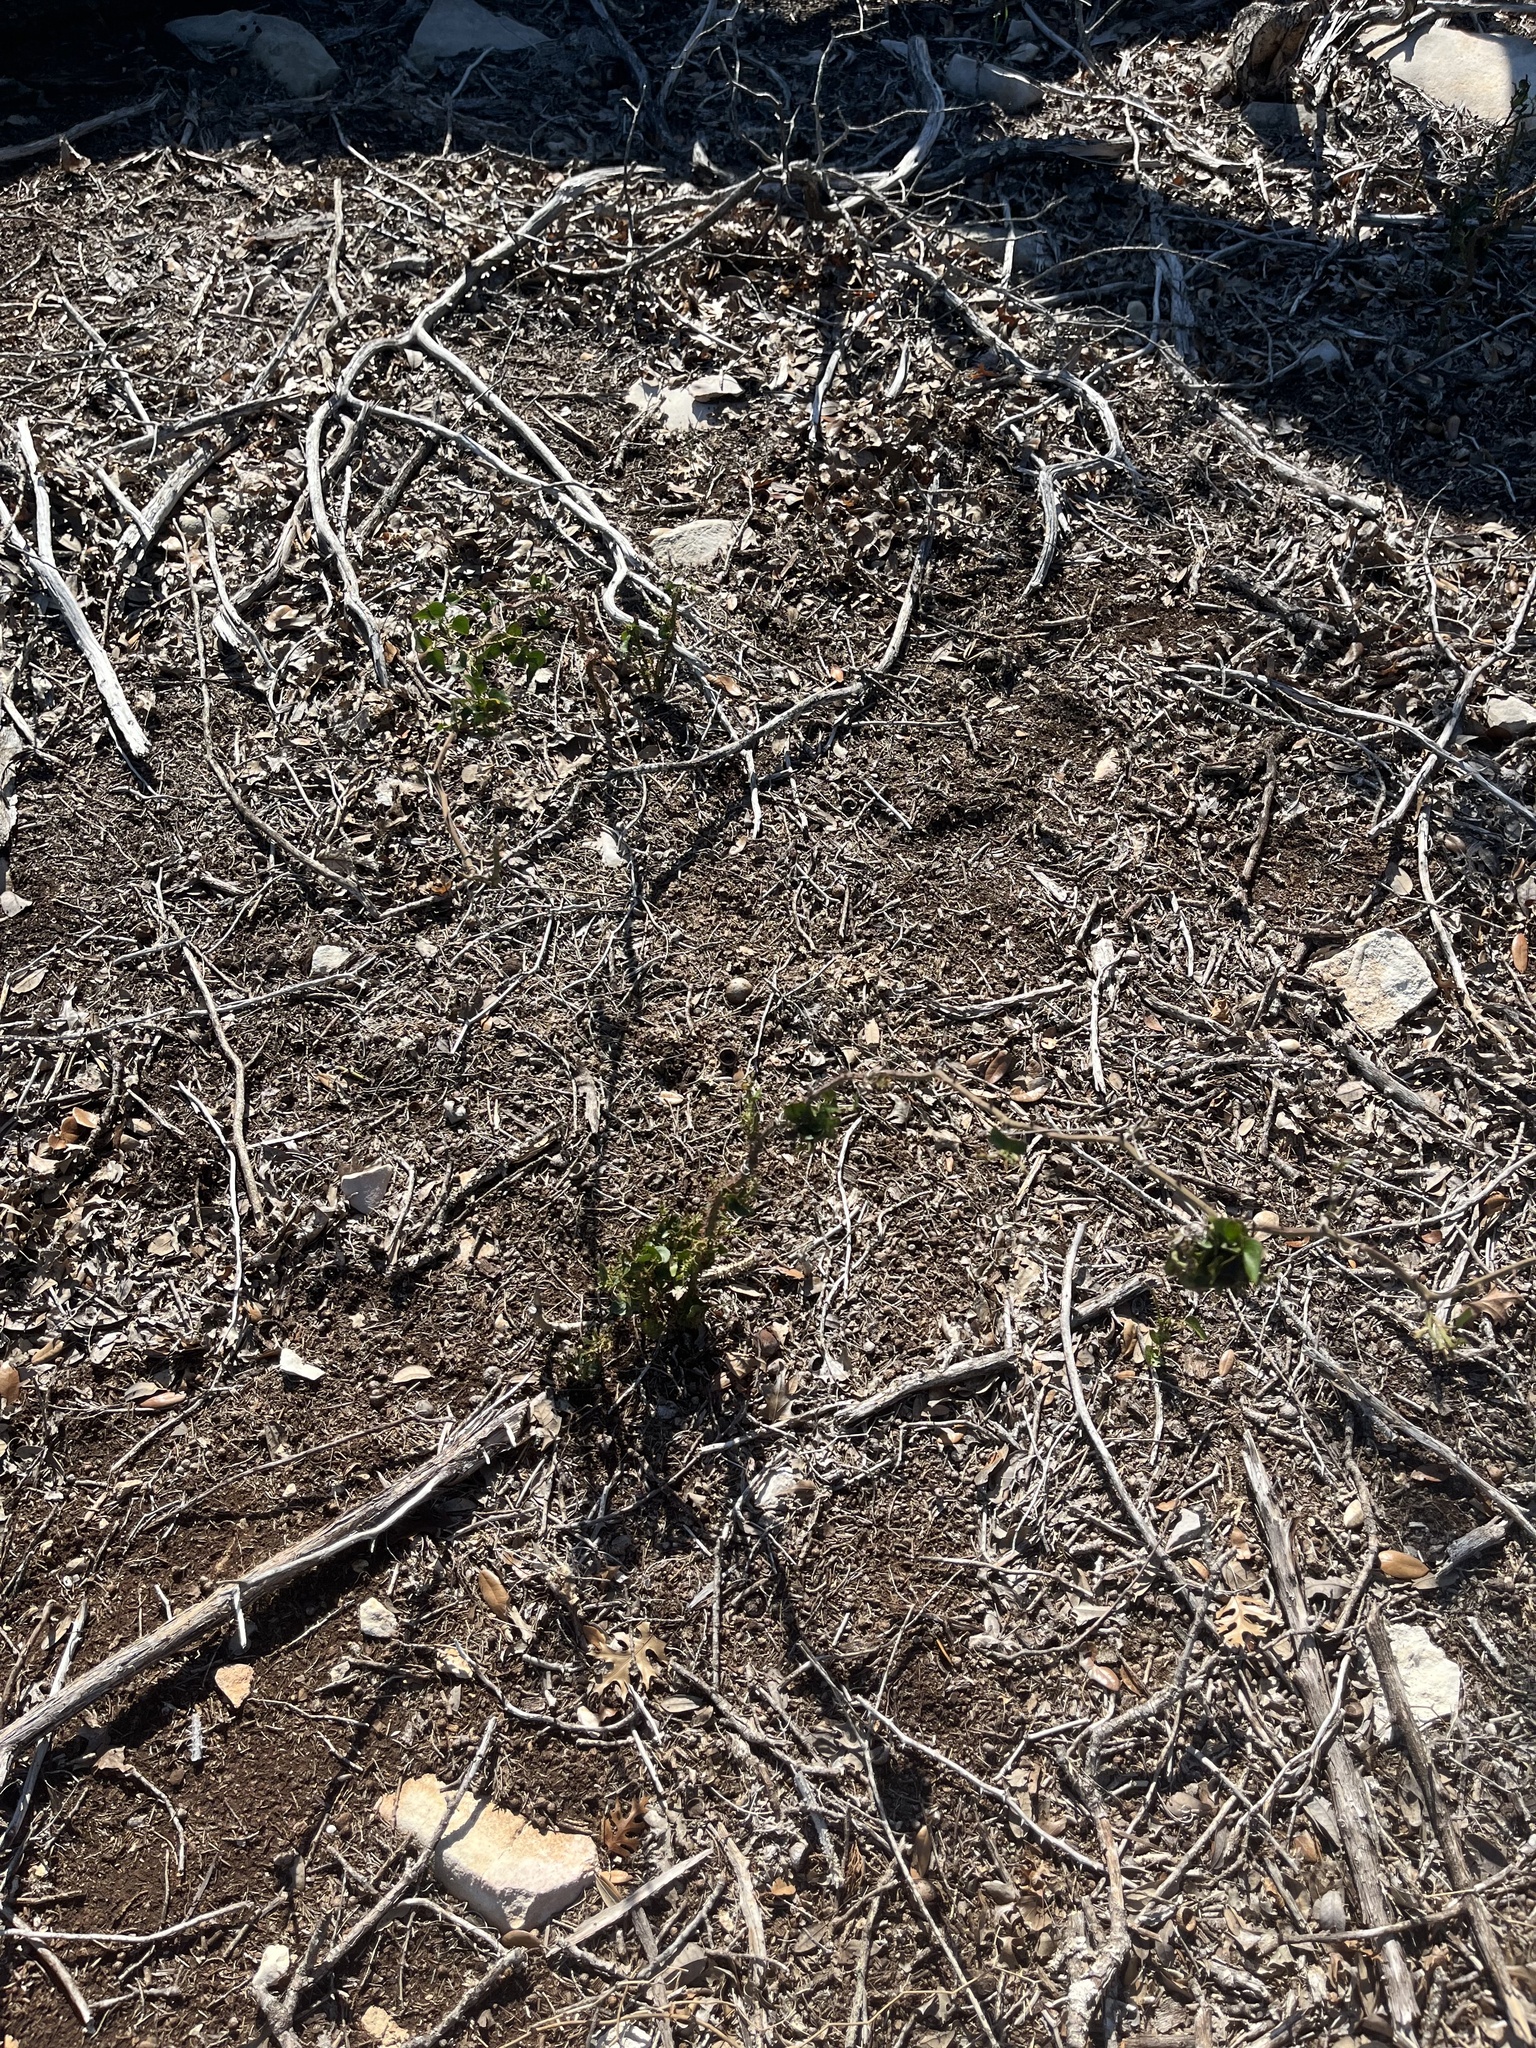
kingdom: Plantae
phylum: Tracheophyta
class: Liliopsida
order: Liliales
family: Smilacaceae
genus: Smilax
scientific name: Smilax bona-nox
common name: Catbrier
